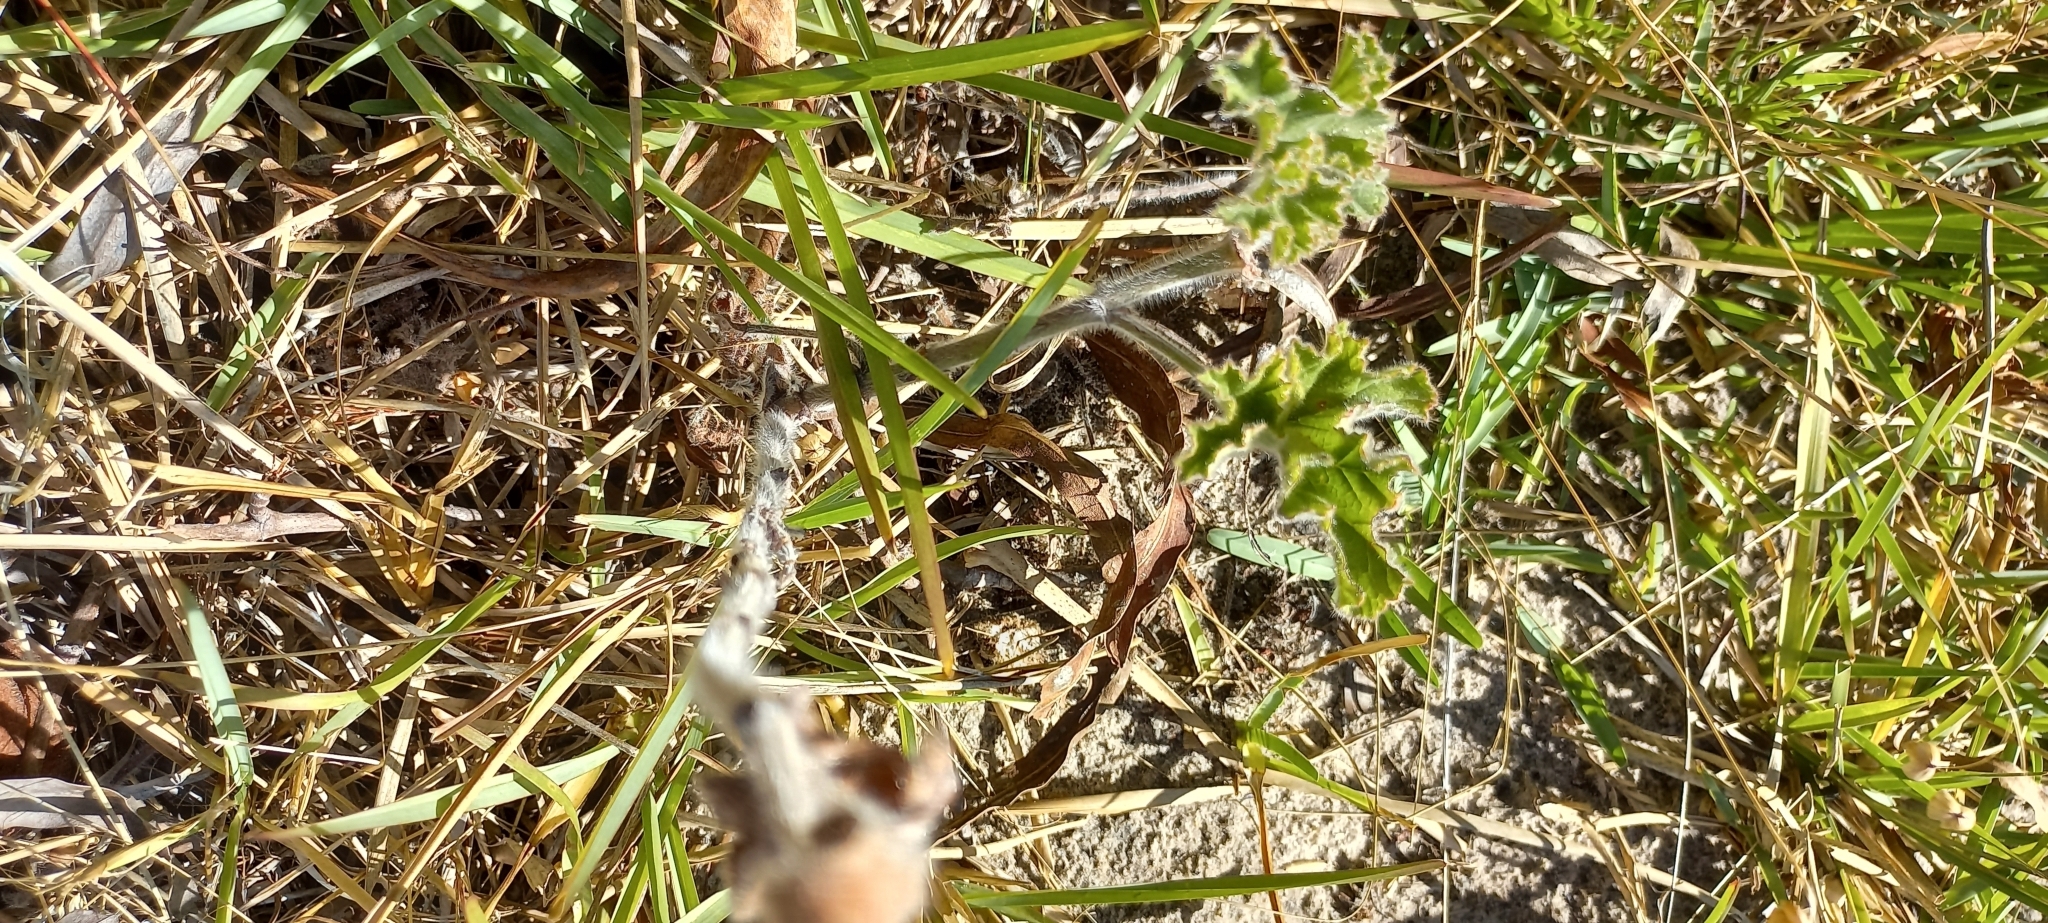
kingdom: Plantae
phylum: Tracheophyta
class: Magnoliopsida
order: Geraniales
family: Geraniaceae
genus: Pelargonium
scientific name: Pelargonium capitatum
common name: Rose scented geranium
